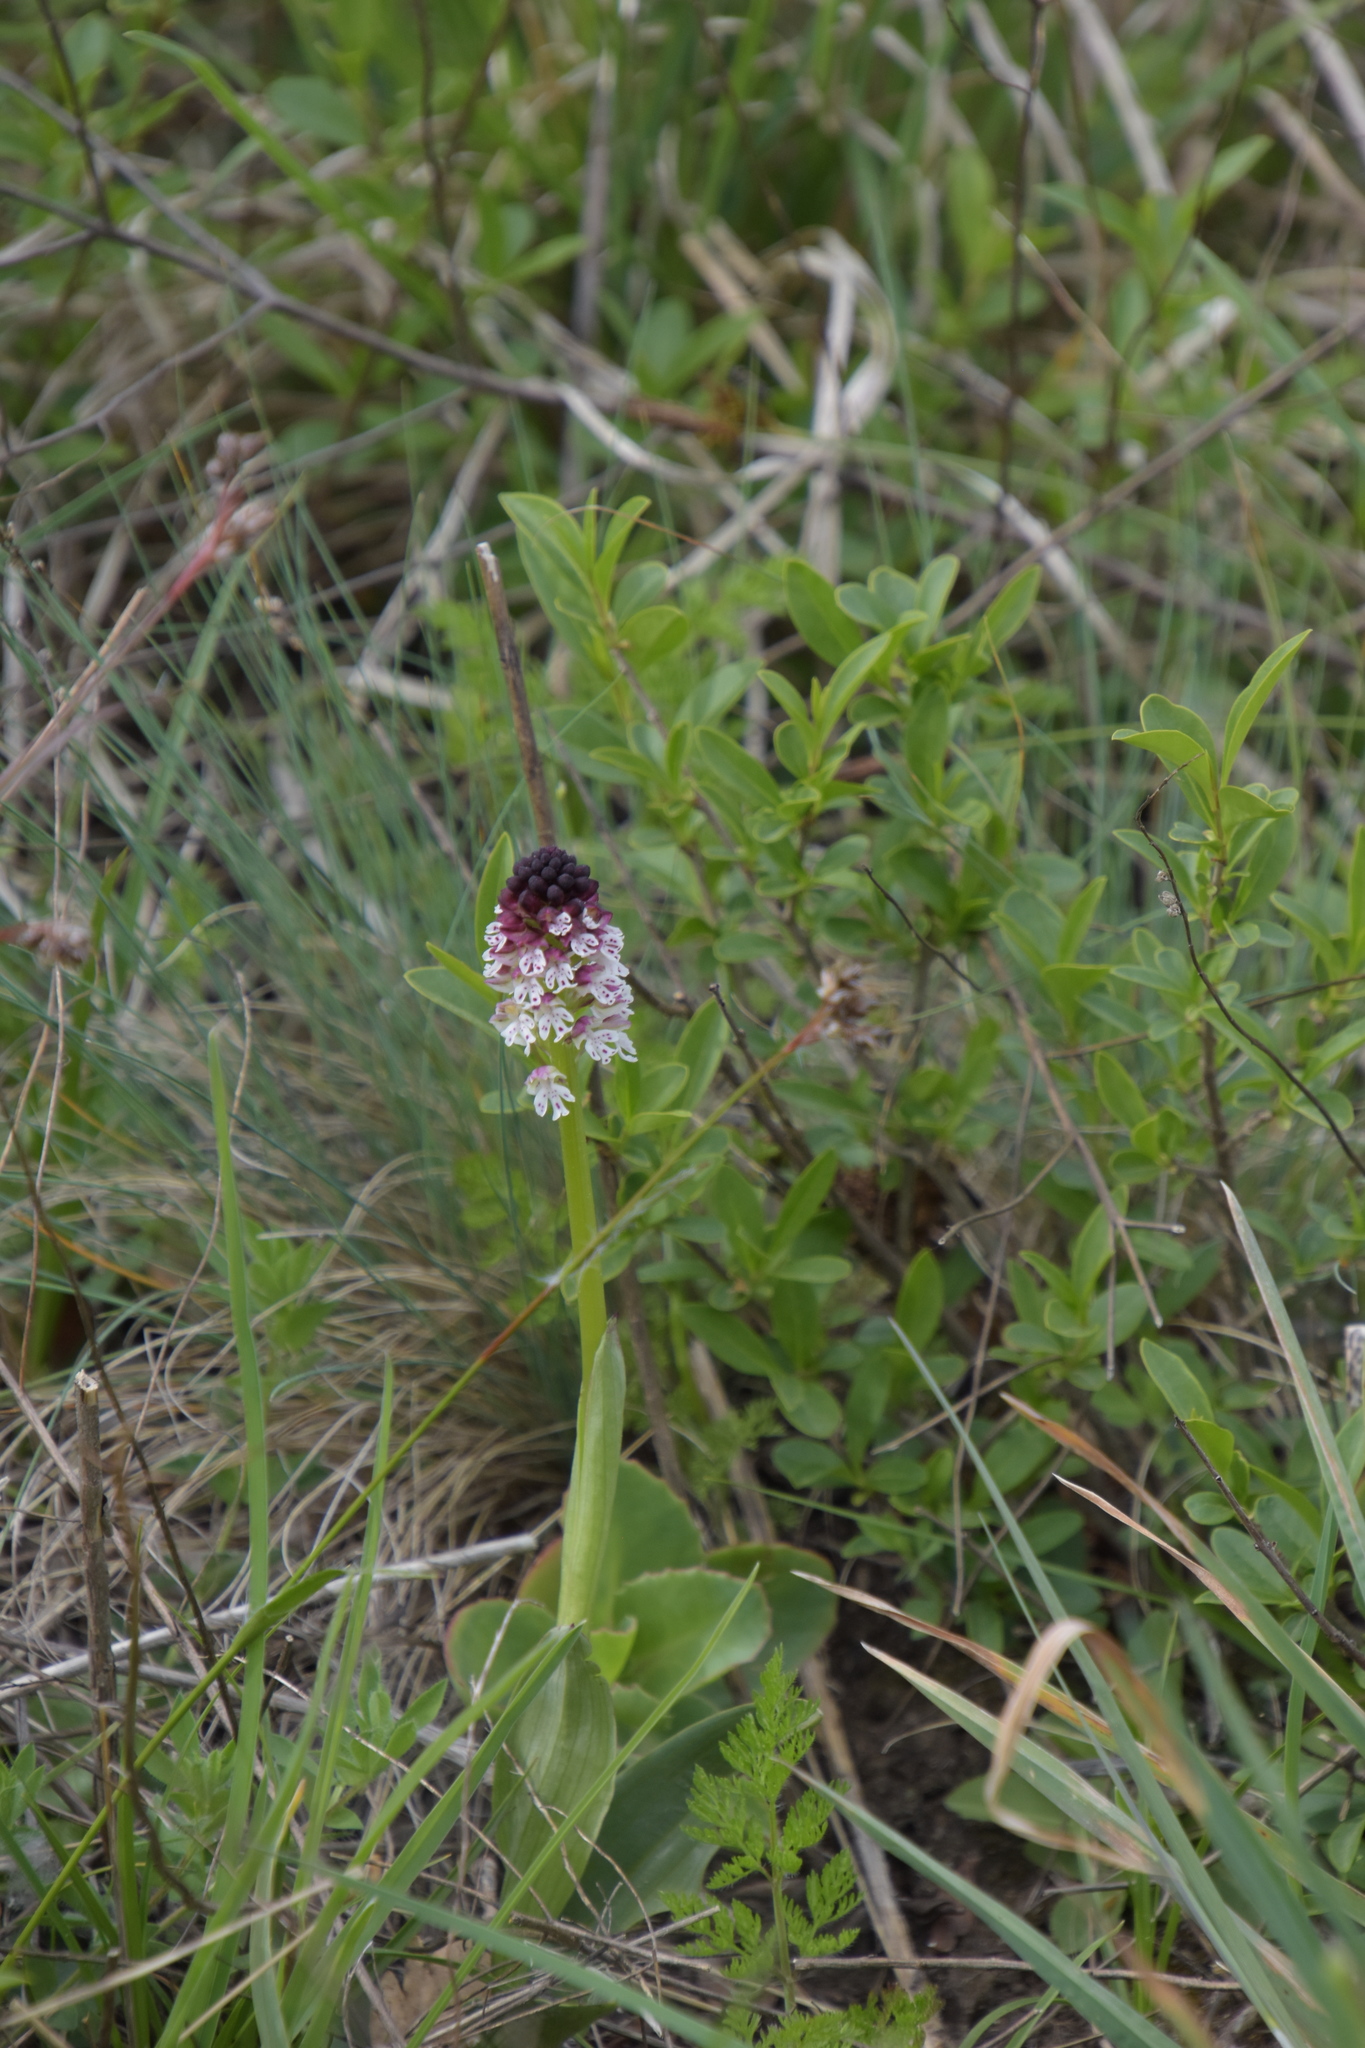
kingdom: Plantae
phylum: Tracheophyta
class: Liliopsida
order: Asparagales
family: Orchidaceae
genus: Neotinea
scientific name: Neotinea ustulata
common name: Burnt orchid
